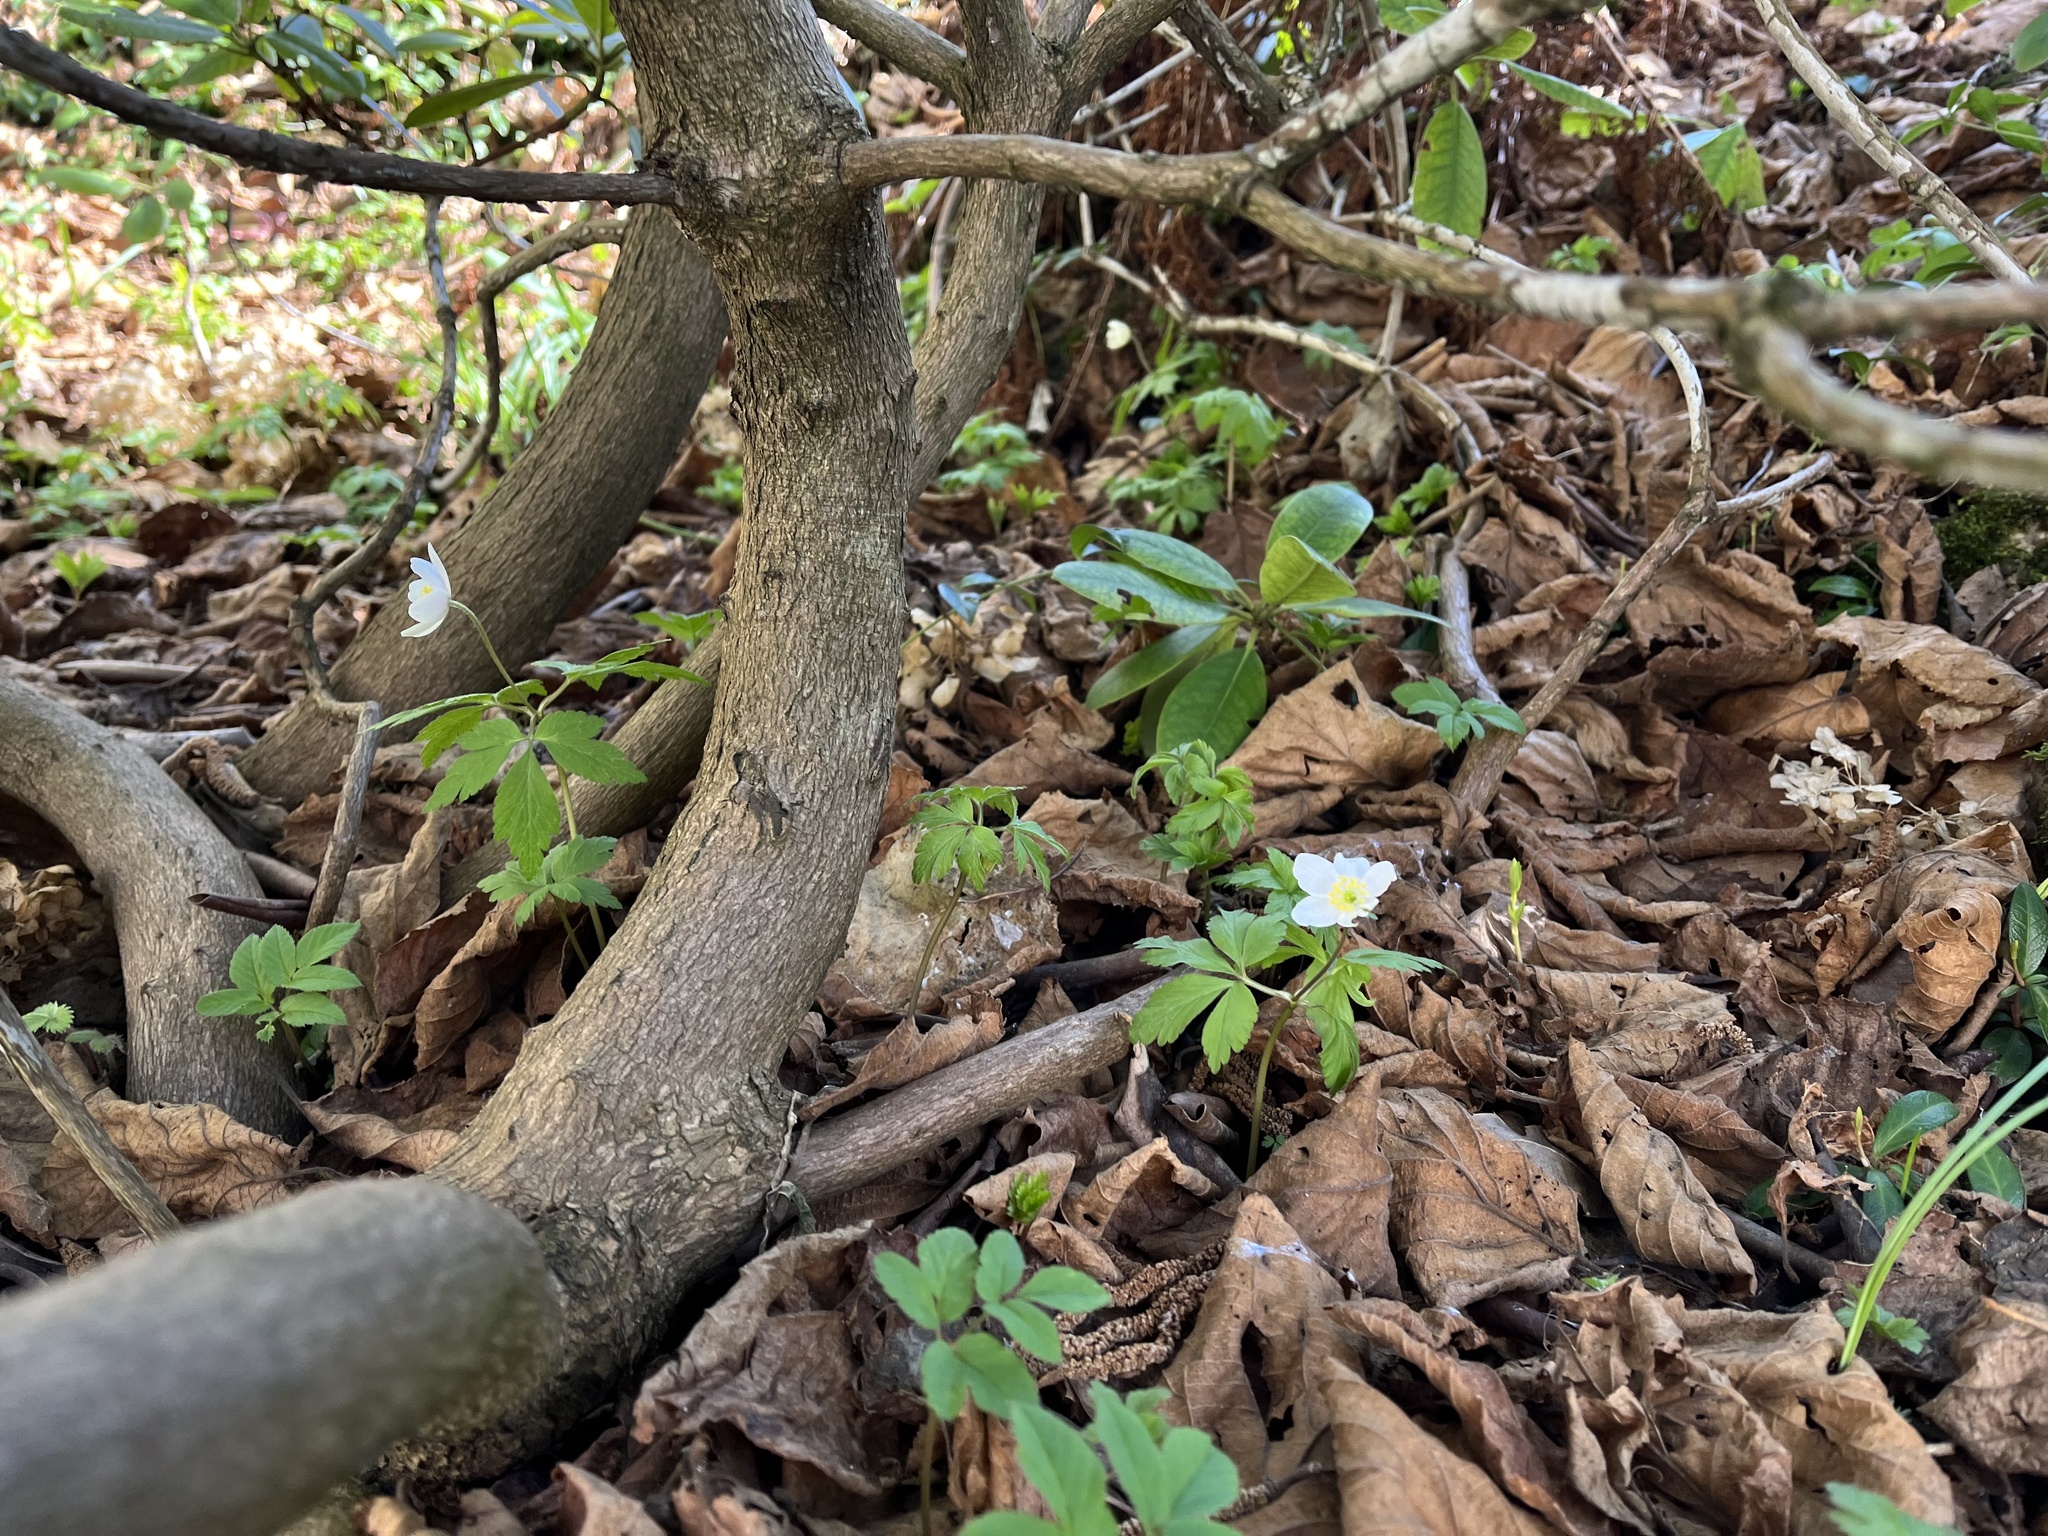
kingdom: Plantae
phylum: Tracheophyta
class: Magnoliopsida
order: Ranunculales
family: Ranunculaceae
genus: Anemone
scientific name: Anemone nemorosa
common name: Wood anemone
